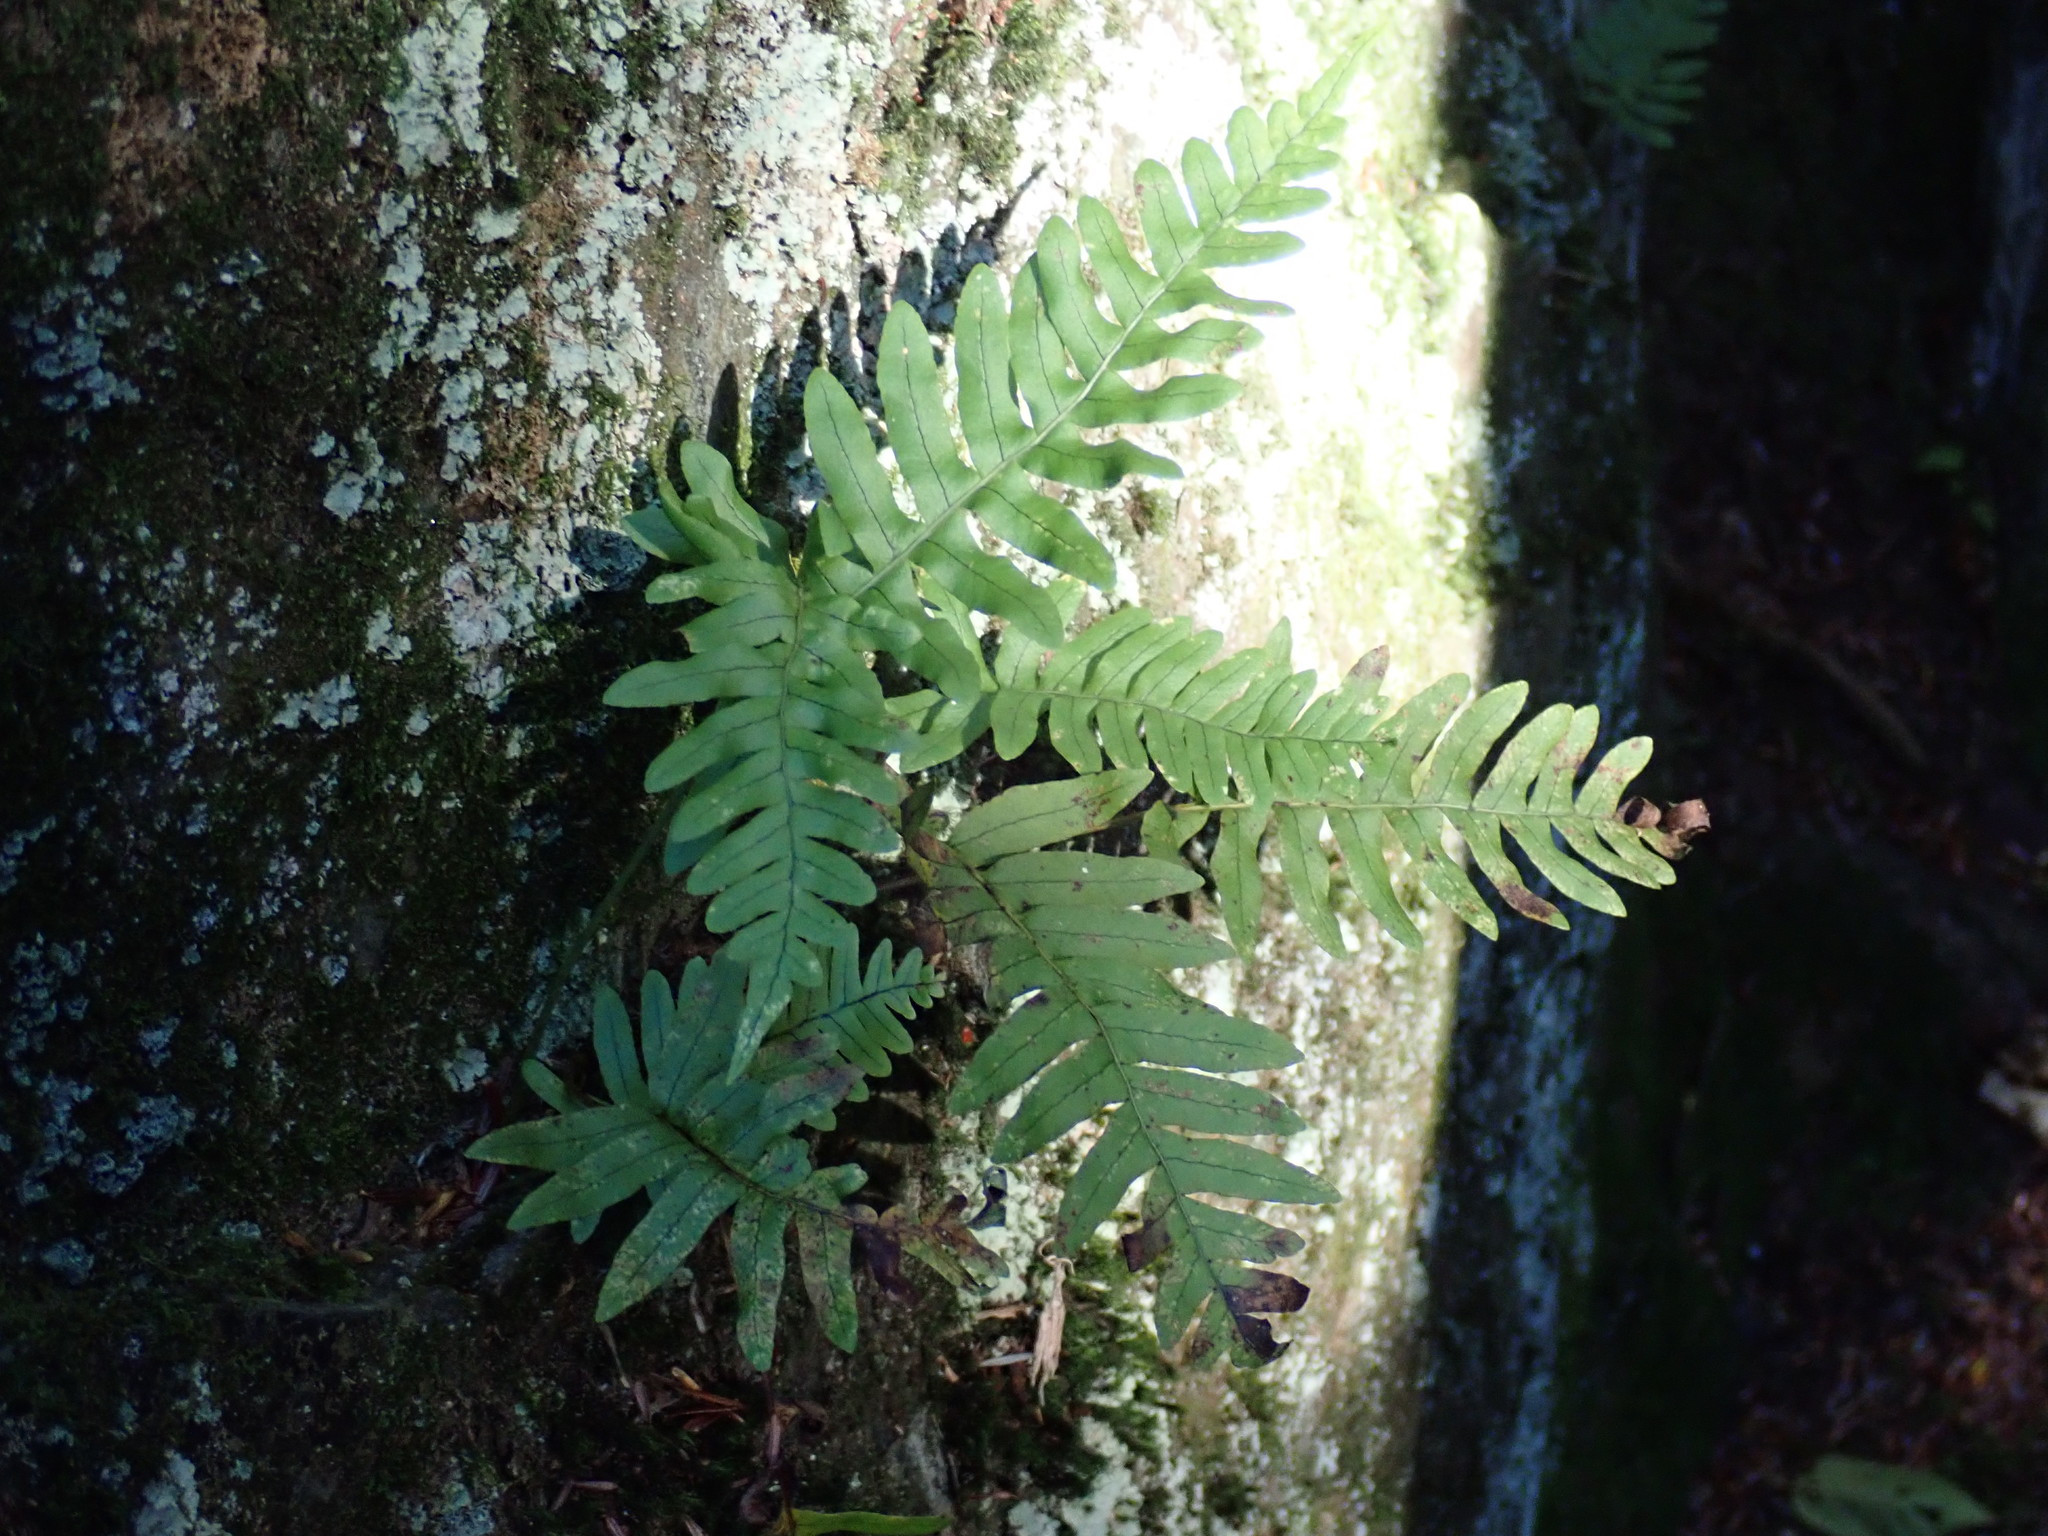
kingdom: Plantae
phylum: Tracheophyta
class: Polypodiopsida
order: Polypodiales
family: Polypodiaceae
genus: Polypodium
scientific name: Polypodium
